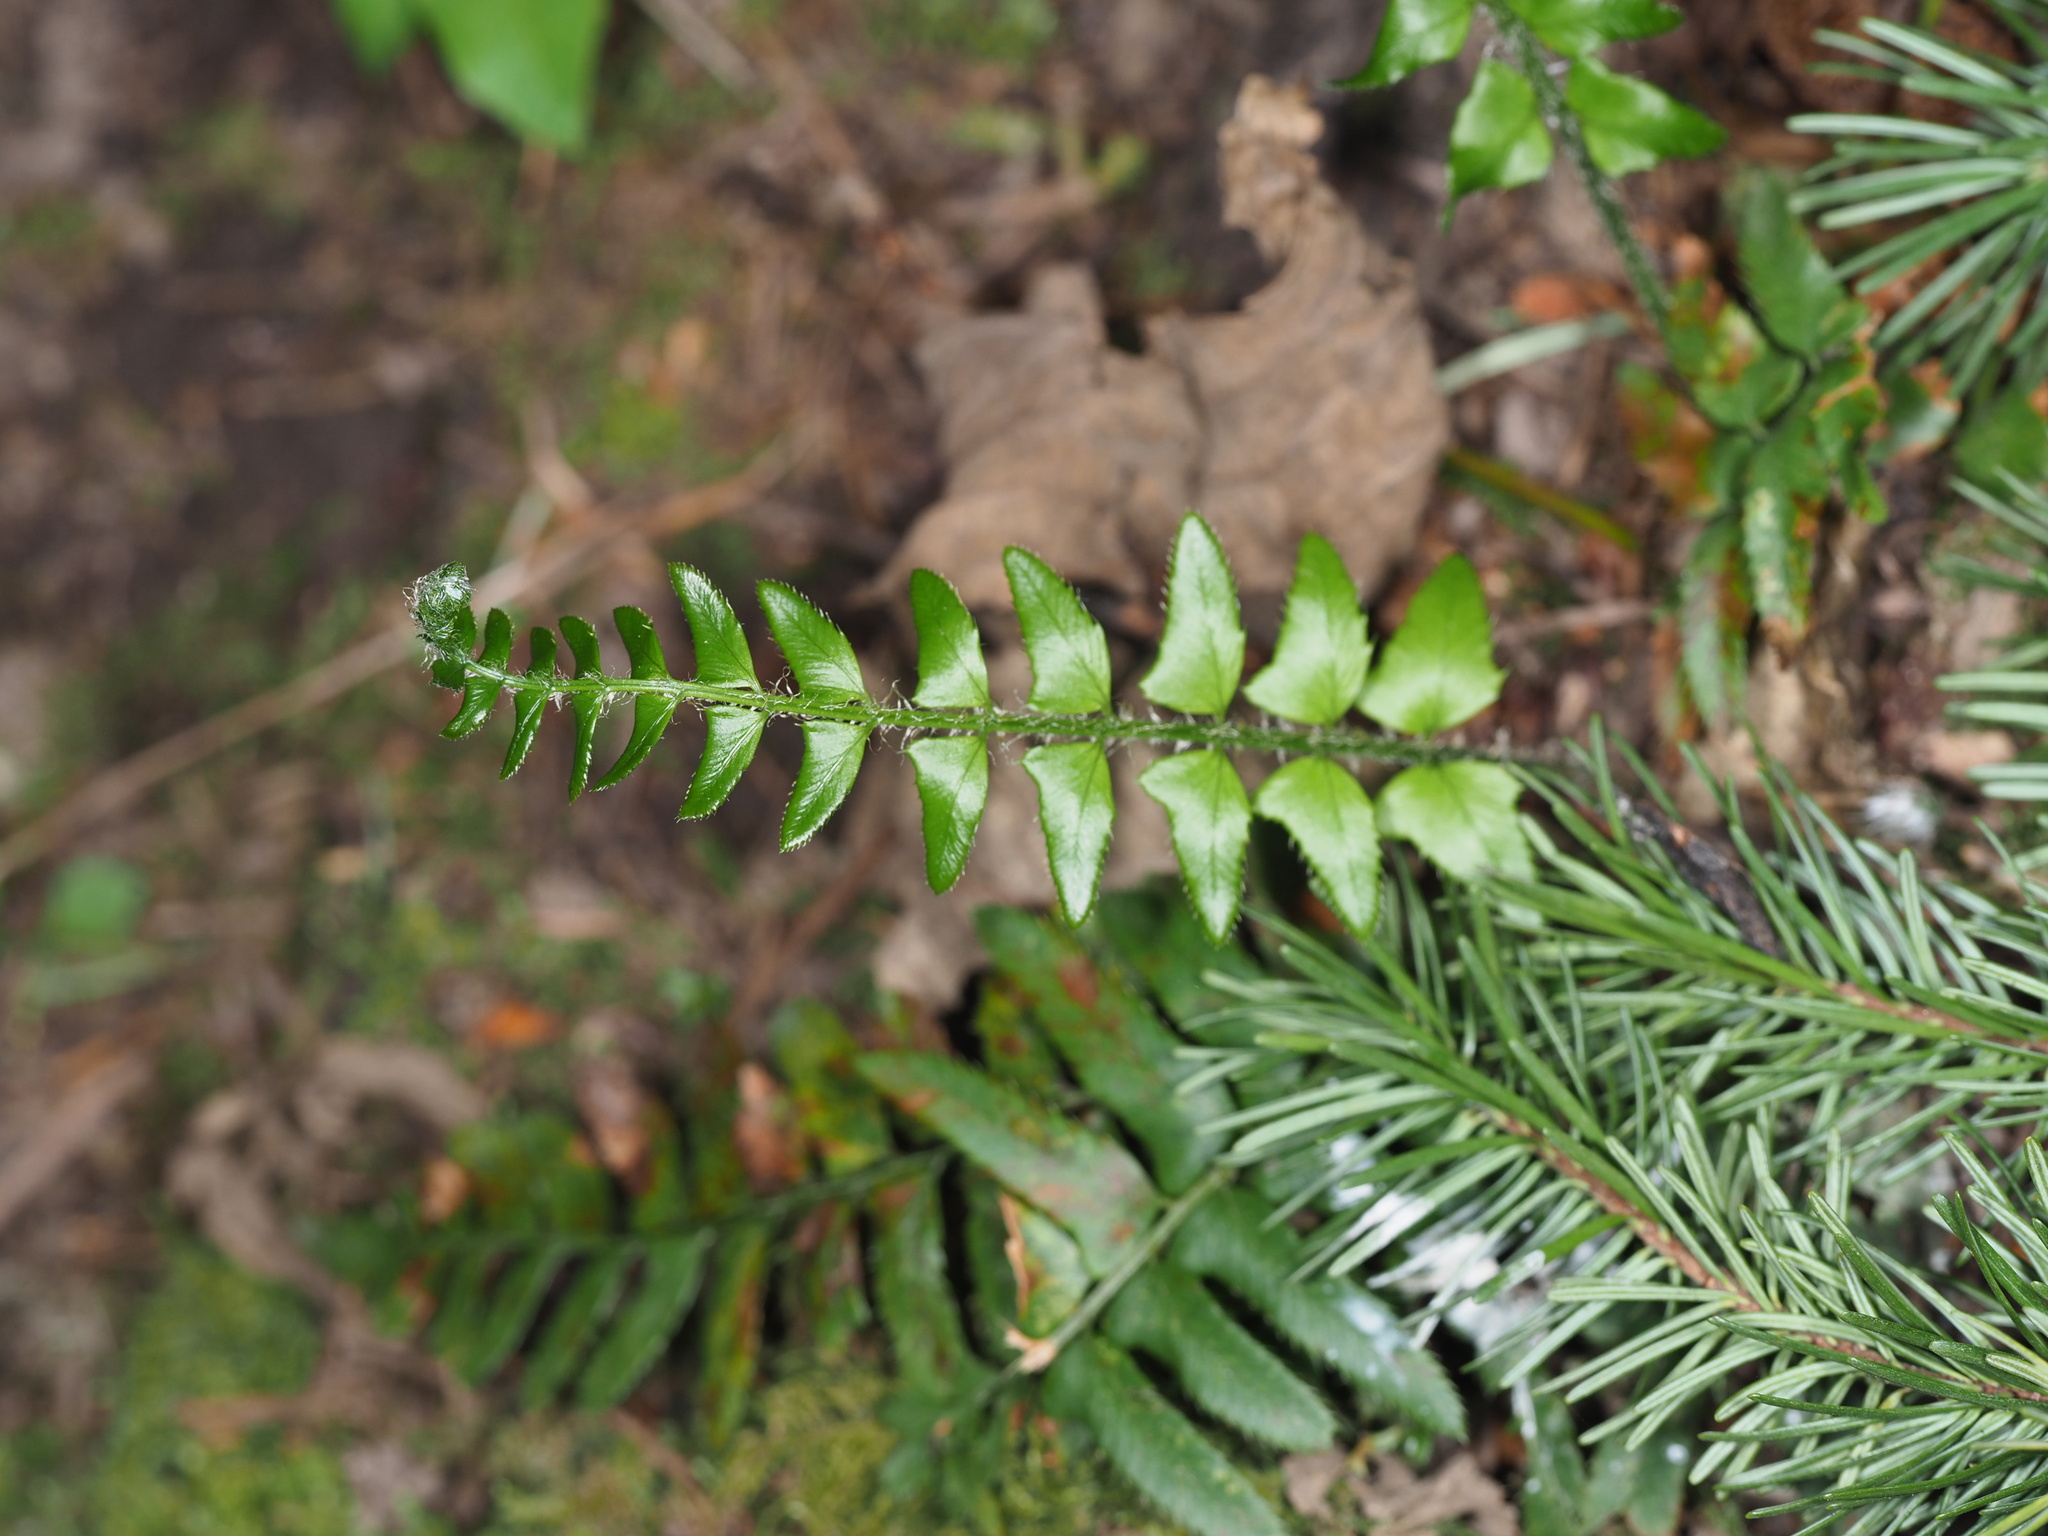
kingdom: Plantae
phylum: Tracheophyta
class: Polypodiopsida
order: Polypodiales
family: Dryopteridaceae
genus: Polystichum
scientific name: Polystichum munitum
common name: Western sword-fern
